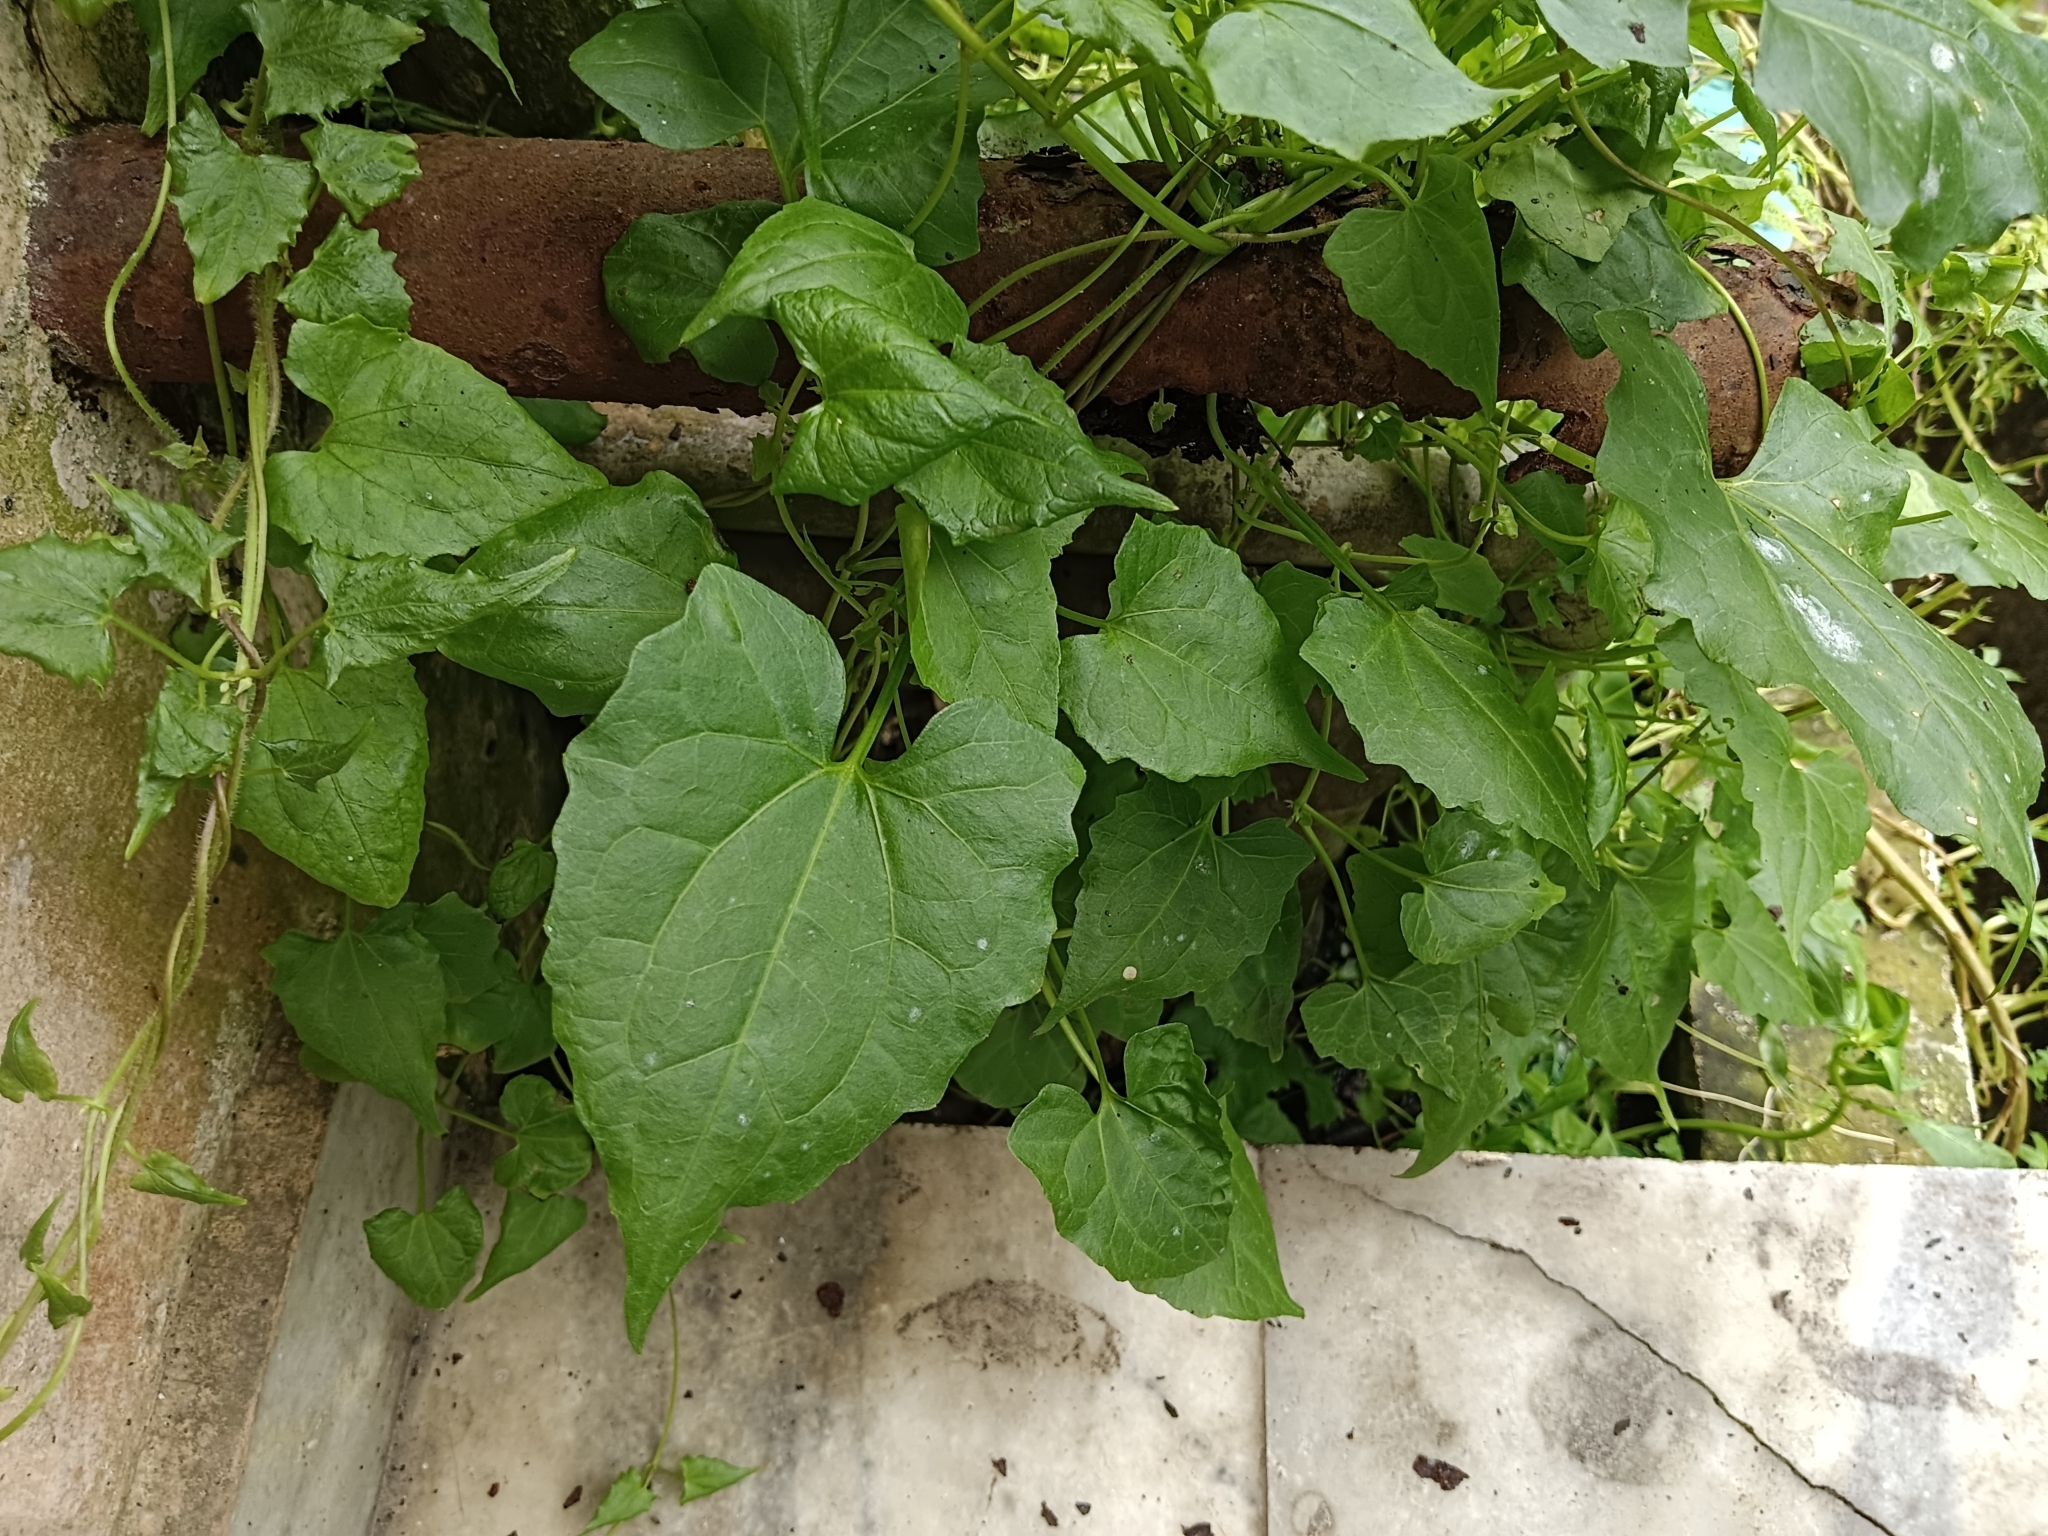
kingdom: Plantae
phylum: Tracheophyta
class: Magnoliopsida
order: Asterales
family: Asteraceae
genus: Mikania
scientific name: Mikania micrantha
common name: Mile-a-minute
